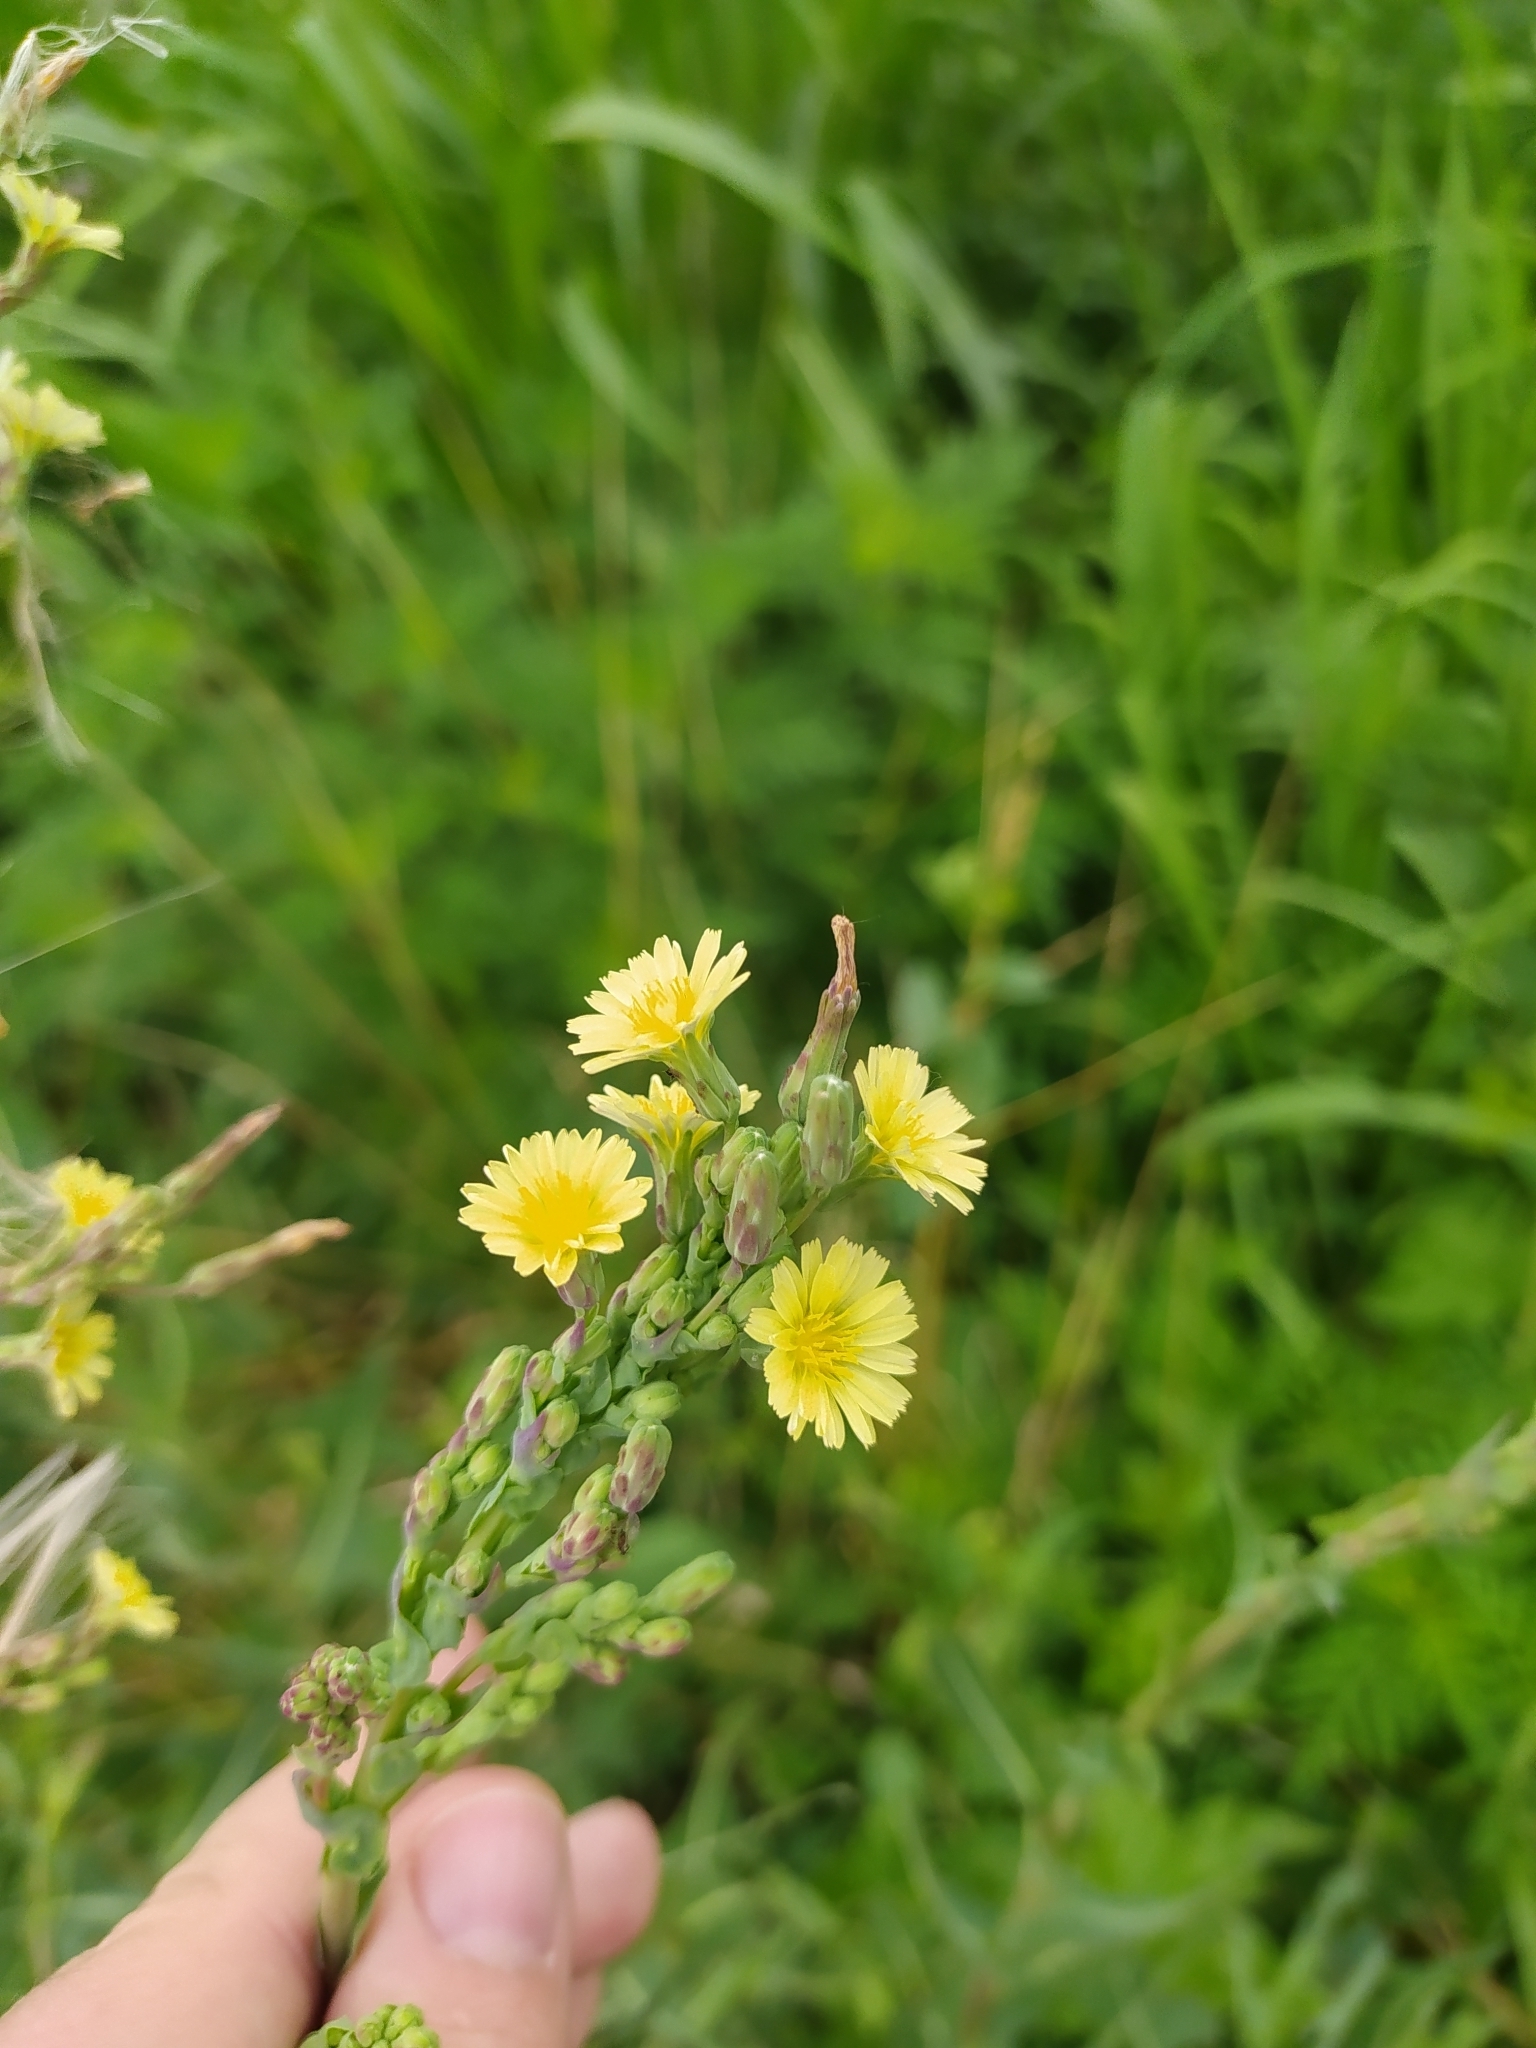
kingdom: Plantae
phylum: Tracheophyta
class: Magnoliopsida
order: Asterales
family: Asteraceae
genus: Lactuca
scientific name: Lactuca serriola
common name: Prickly lettuce
